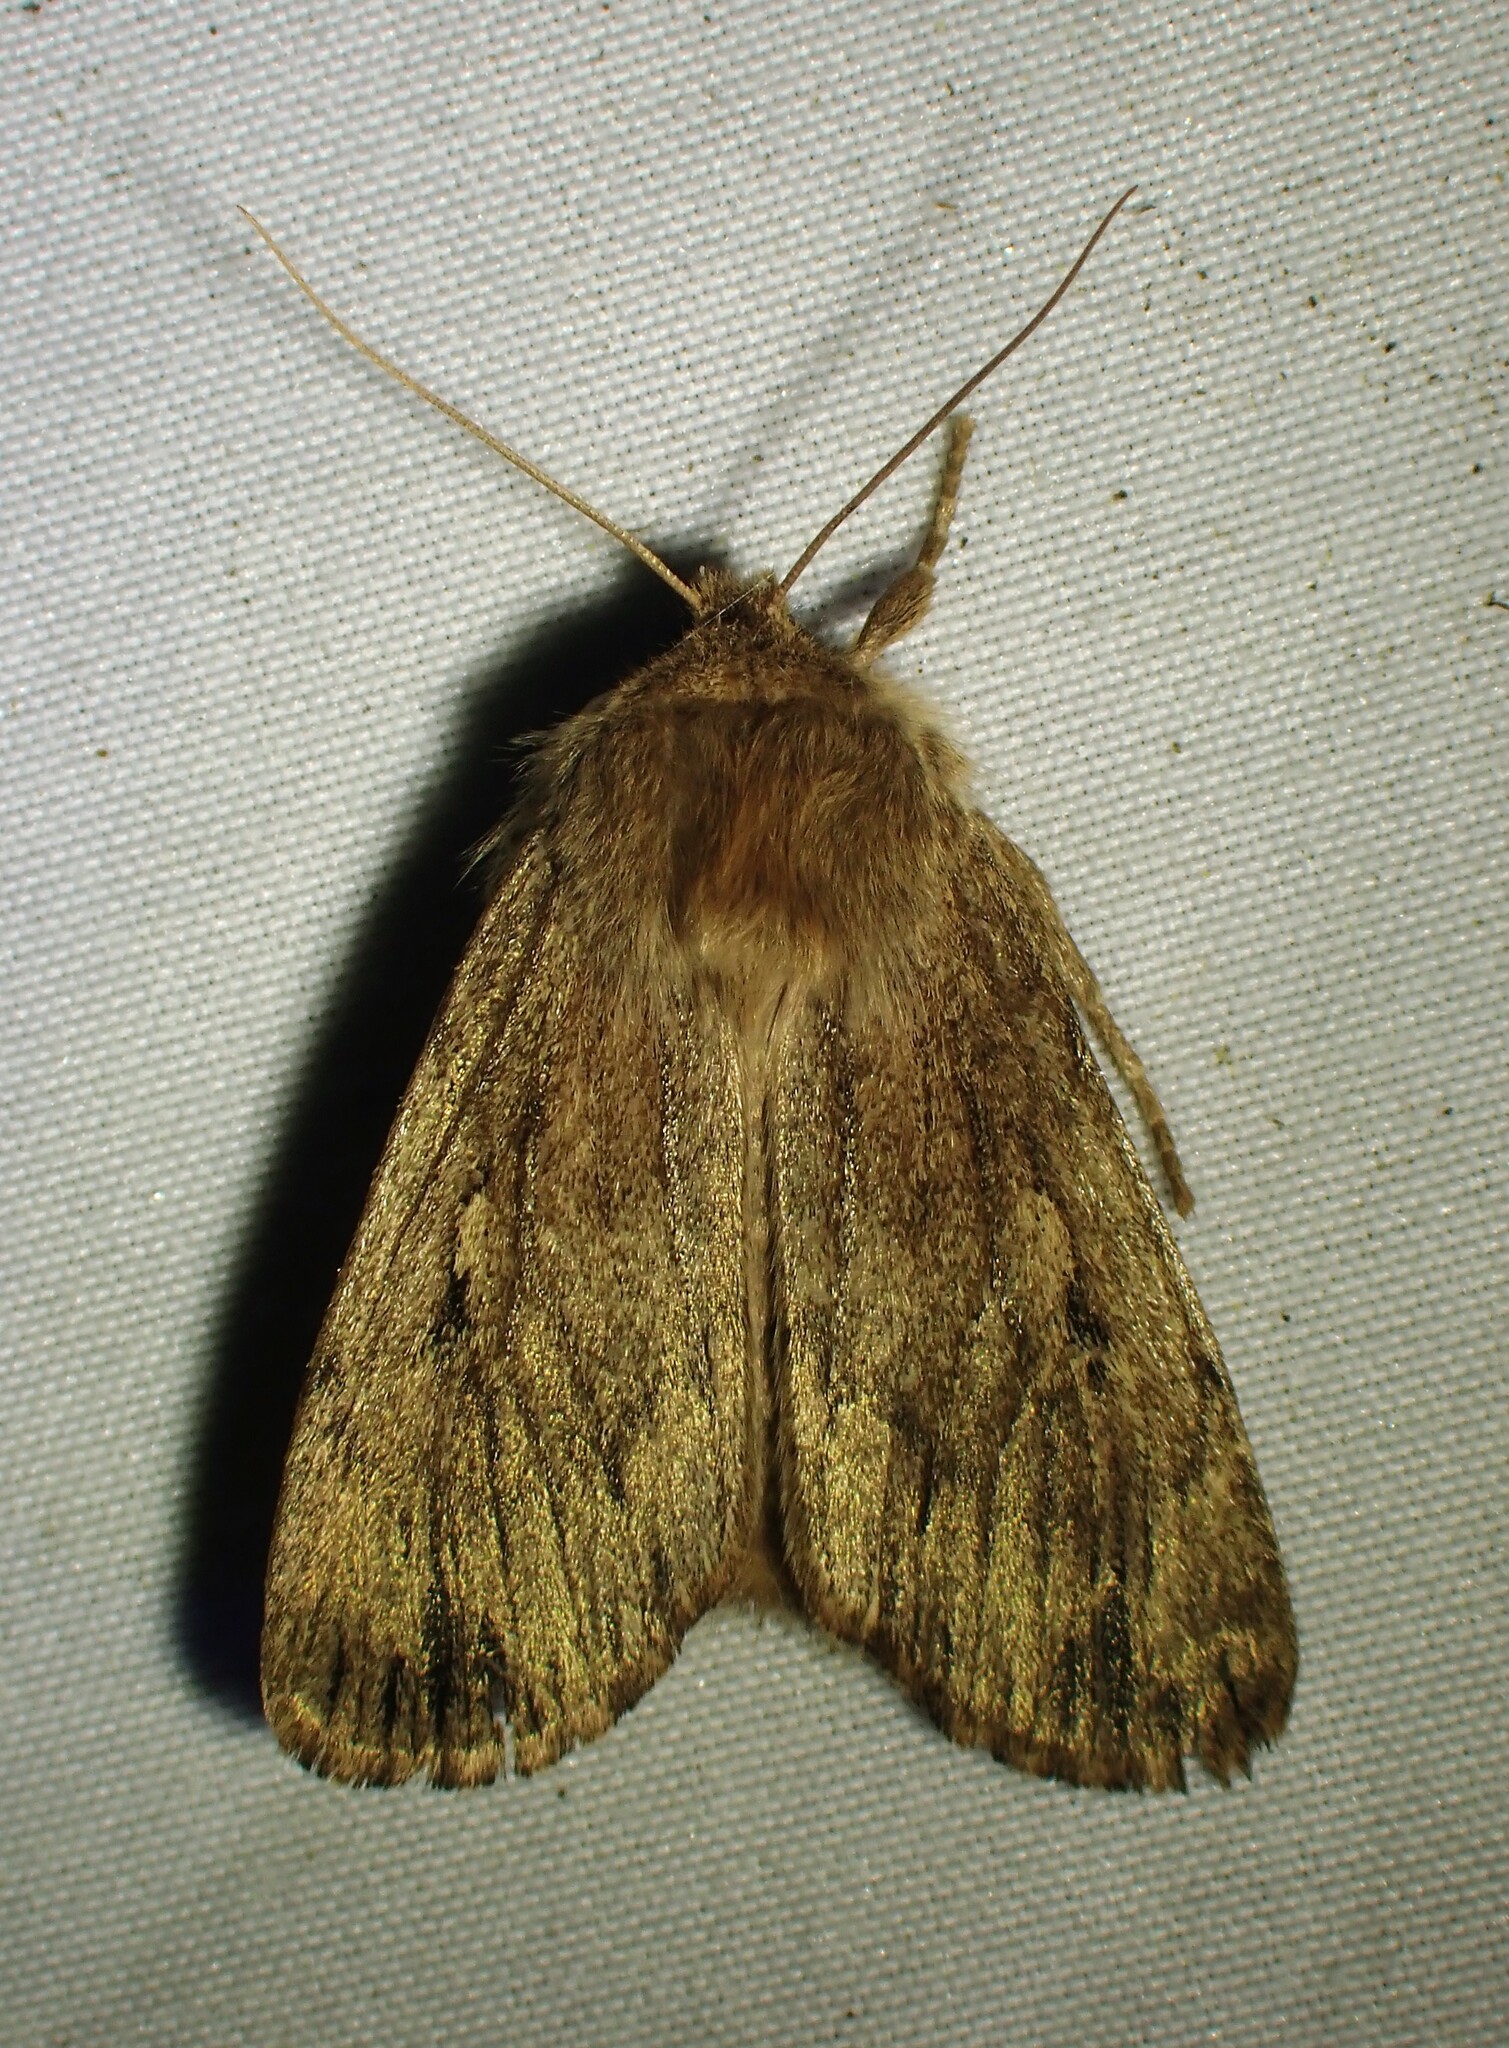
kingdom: Animalia
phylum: Arthropoda
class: Insecta
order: Lepidoptera
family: Noctuidae
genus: Ufeus
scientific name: Ufeus satyricus
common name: Brown satyr moth
